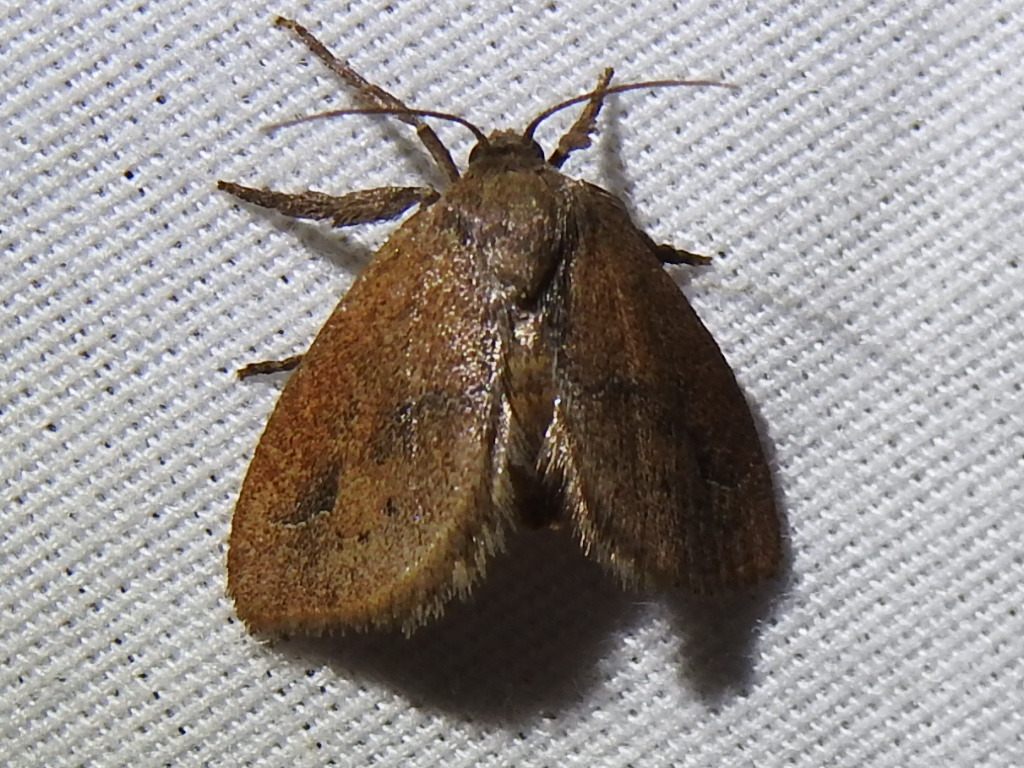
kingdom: Animalia
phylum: Arthropoda
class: Insecta
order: Lepidoptera
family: Limacodidae
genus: Adoneta
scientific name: Adoneta gemina
